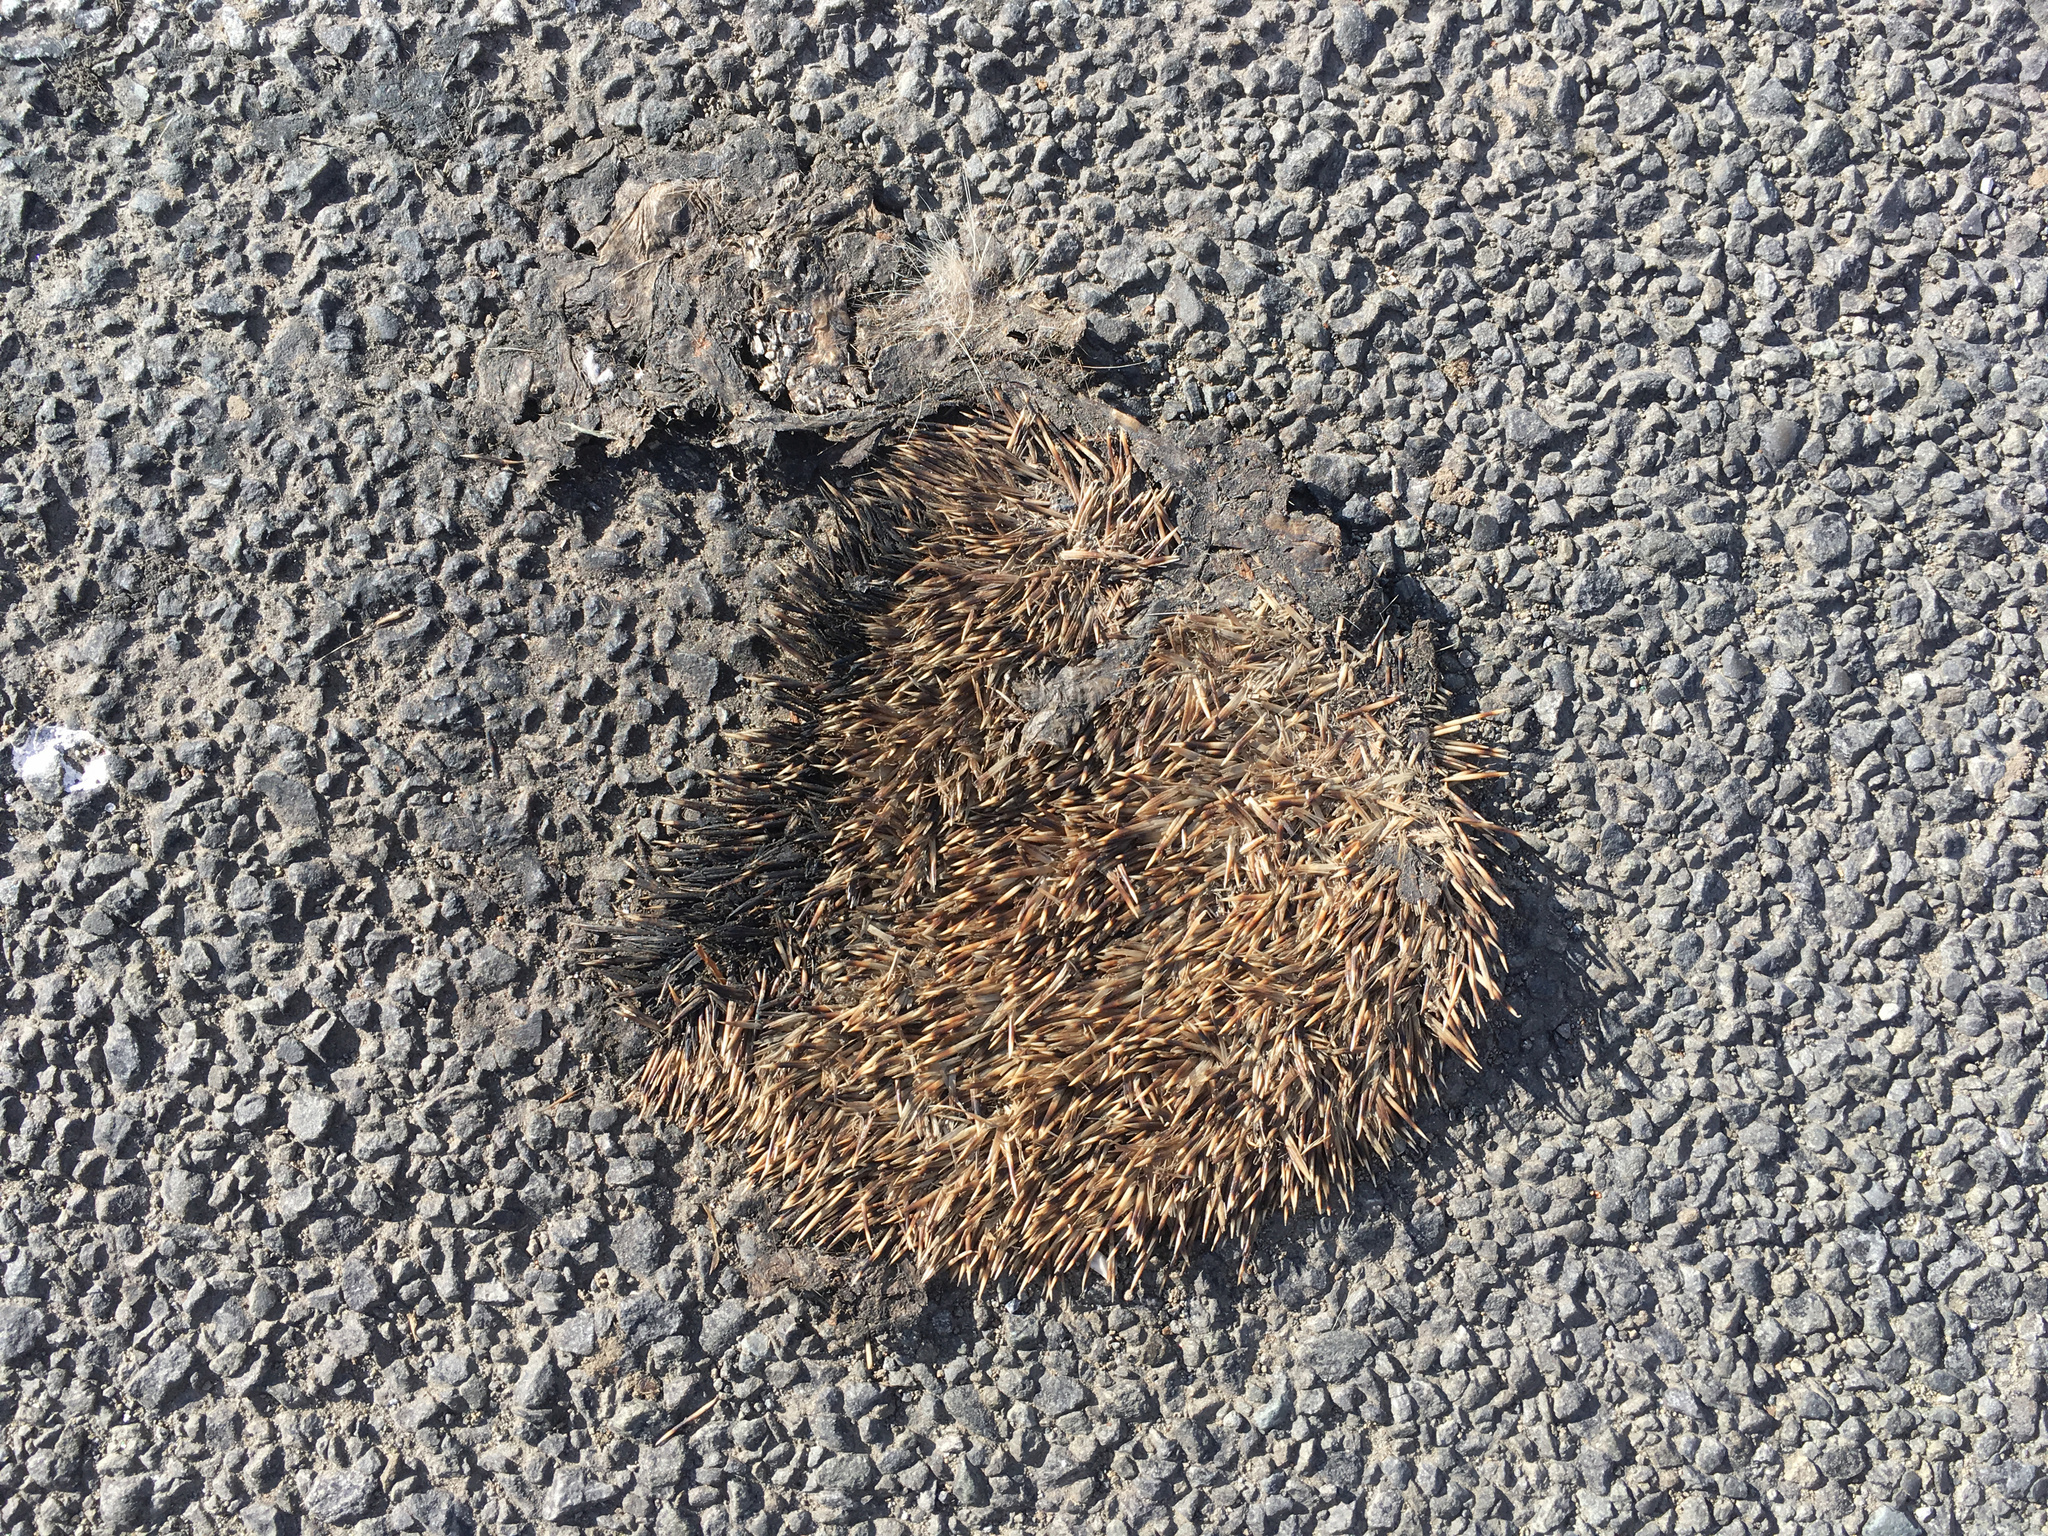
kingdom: Animalia
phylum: Chordata
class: Mammalia
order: Erinaceomorpha
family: Erinaceidae
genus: Erinaceus
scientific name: Erinaceus europaeus
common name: West european hedgehog
